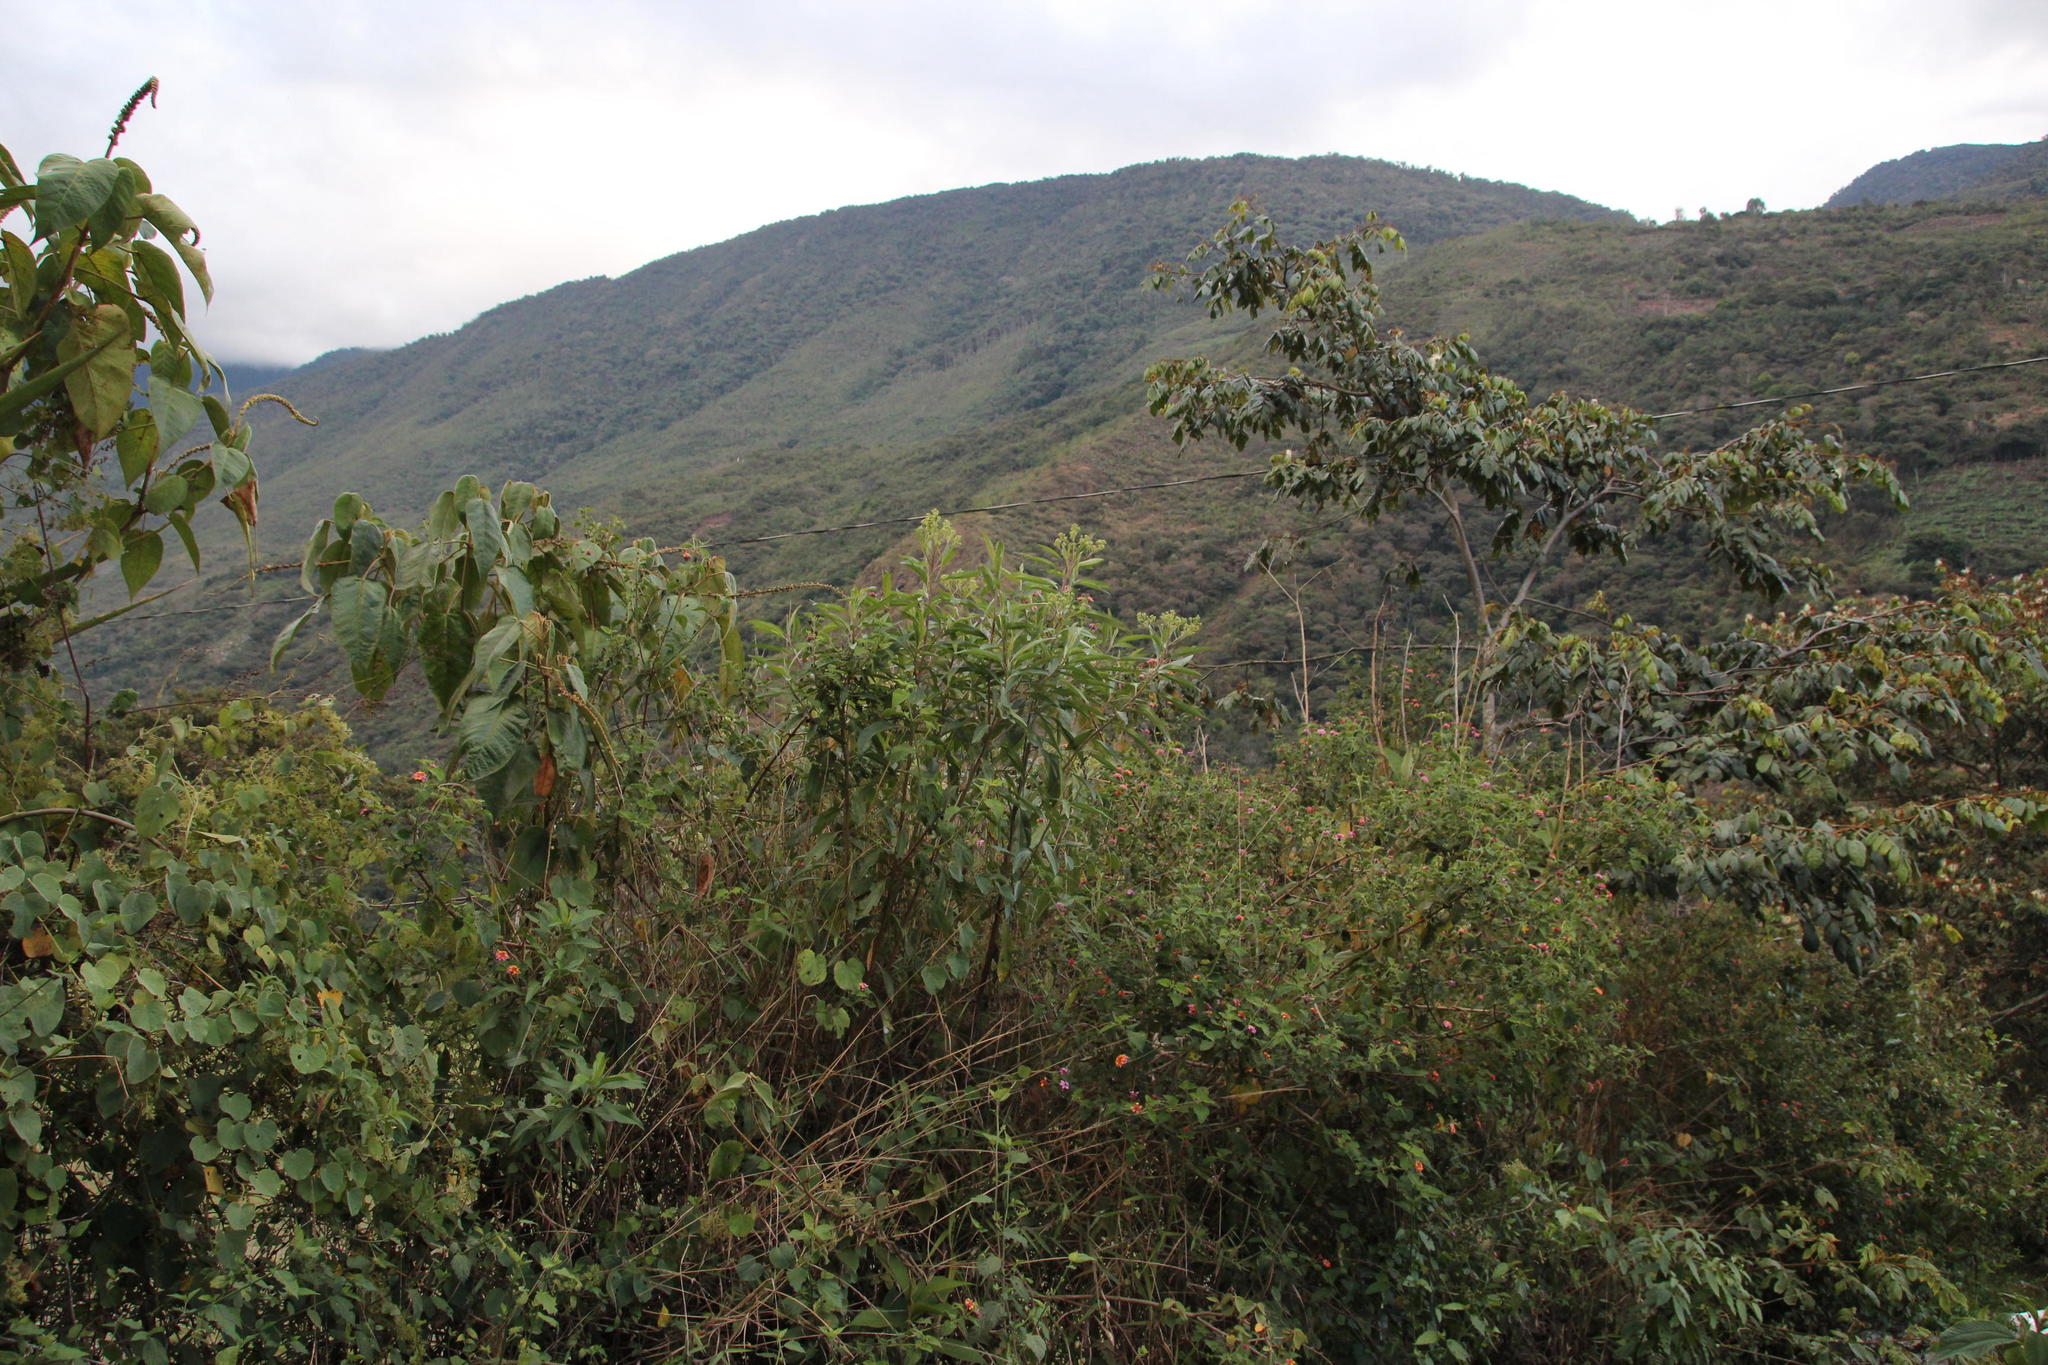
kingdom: Plantae
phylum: Tracheophyta
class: Magnoliopsida
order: Lamiales
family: Verbenaceae
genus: Lantana
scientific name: Lantana camara
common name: Lantana
